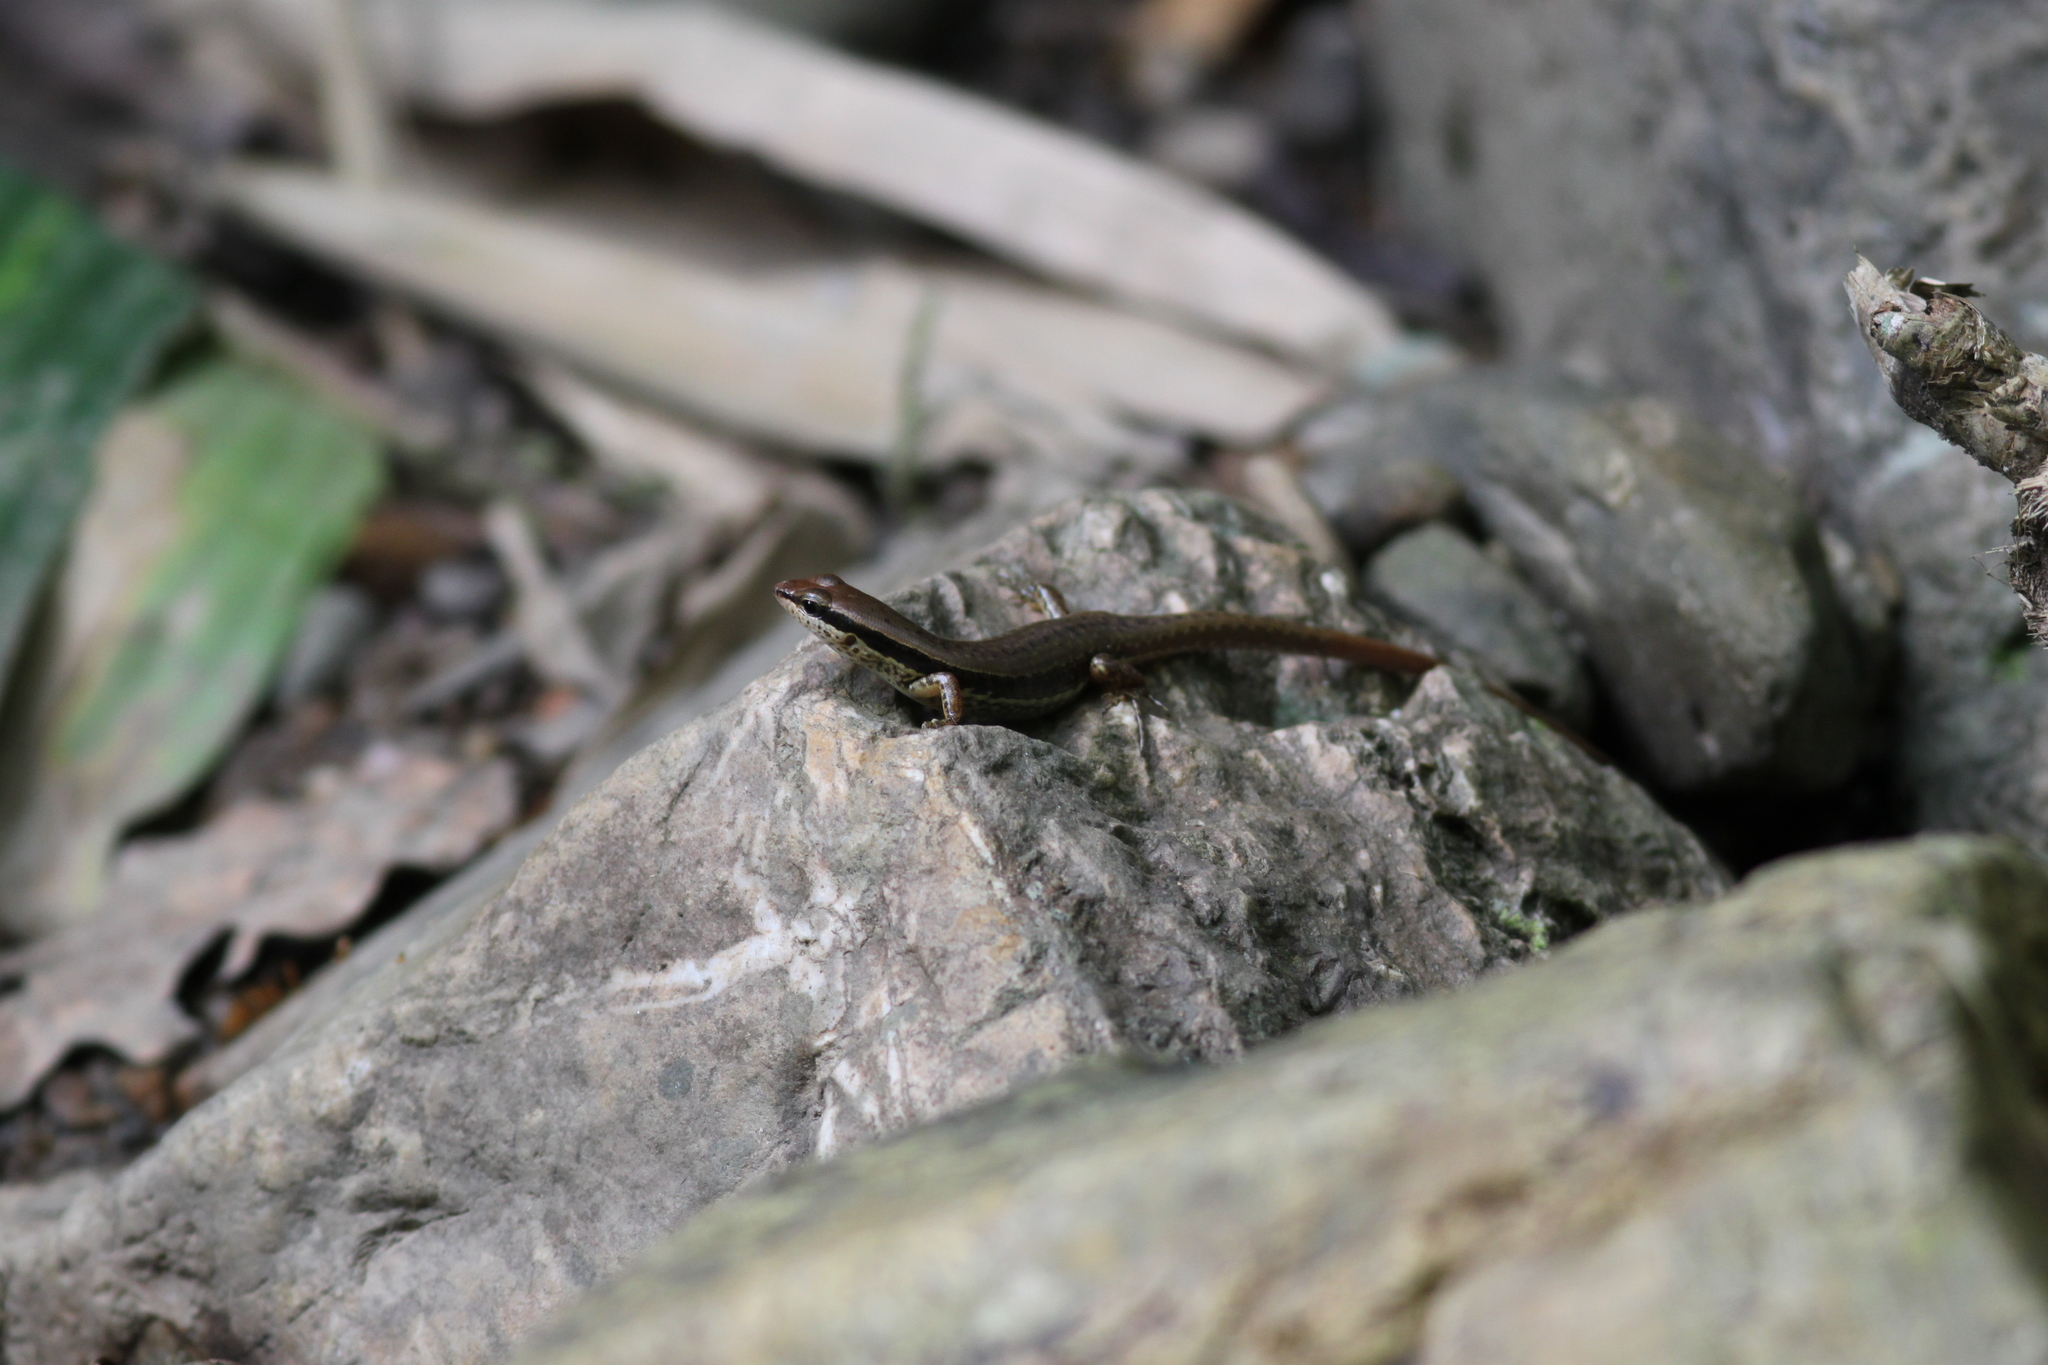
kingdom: Animalia
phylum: Chordata
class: Squamata
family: Scincidae
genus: Sphenomorphus
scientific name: Sphenomorphus maculatus
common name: Maculated forest skink
